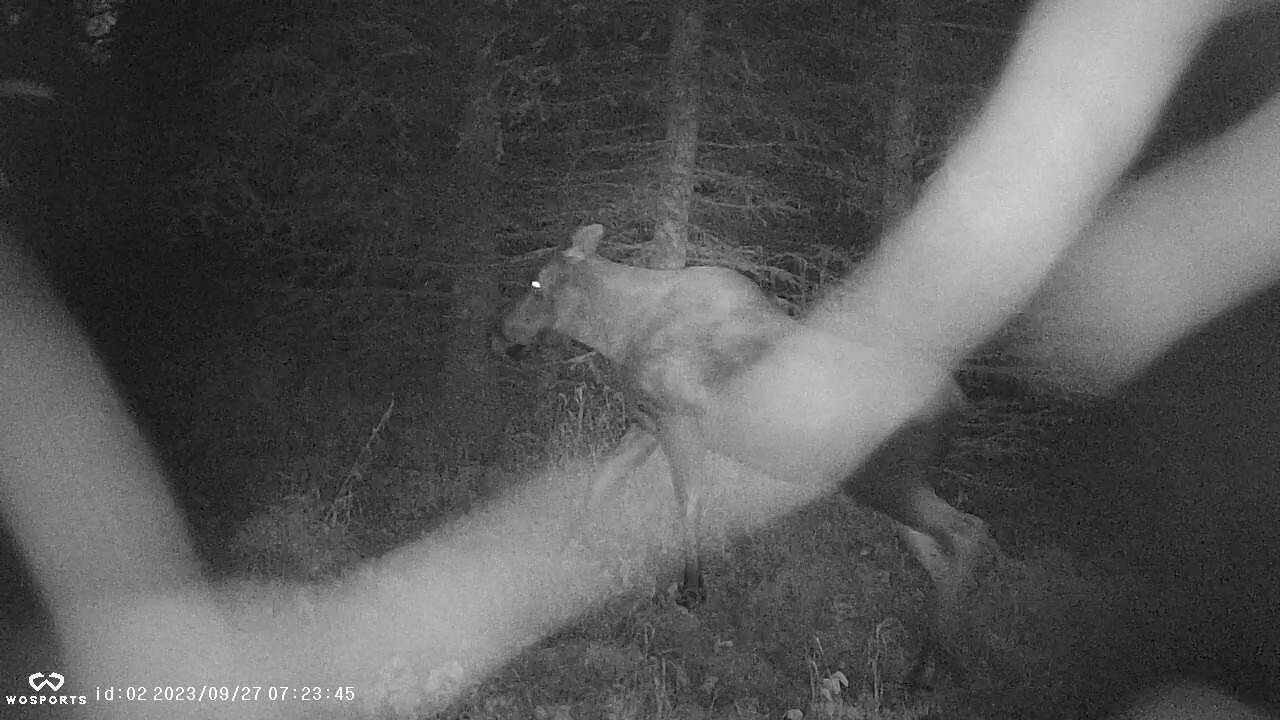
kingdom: Animalia
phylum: Chordata
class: Mammalia
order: Artiodactyla
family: Cervidae
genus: Alces
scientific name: Alces alces
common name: Moose
